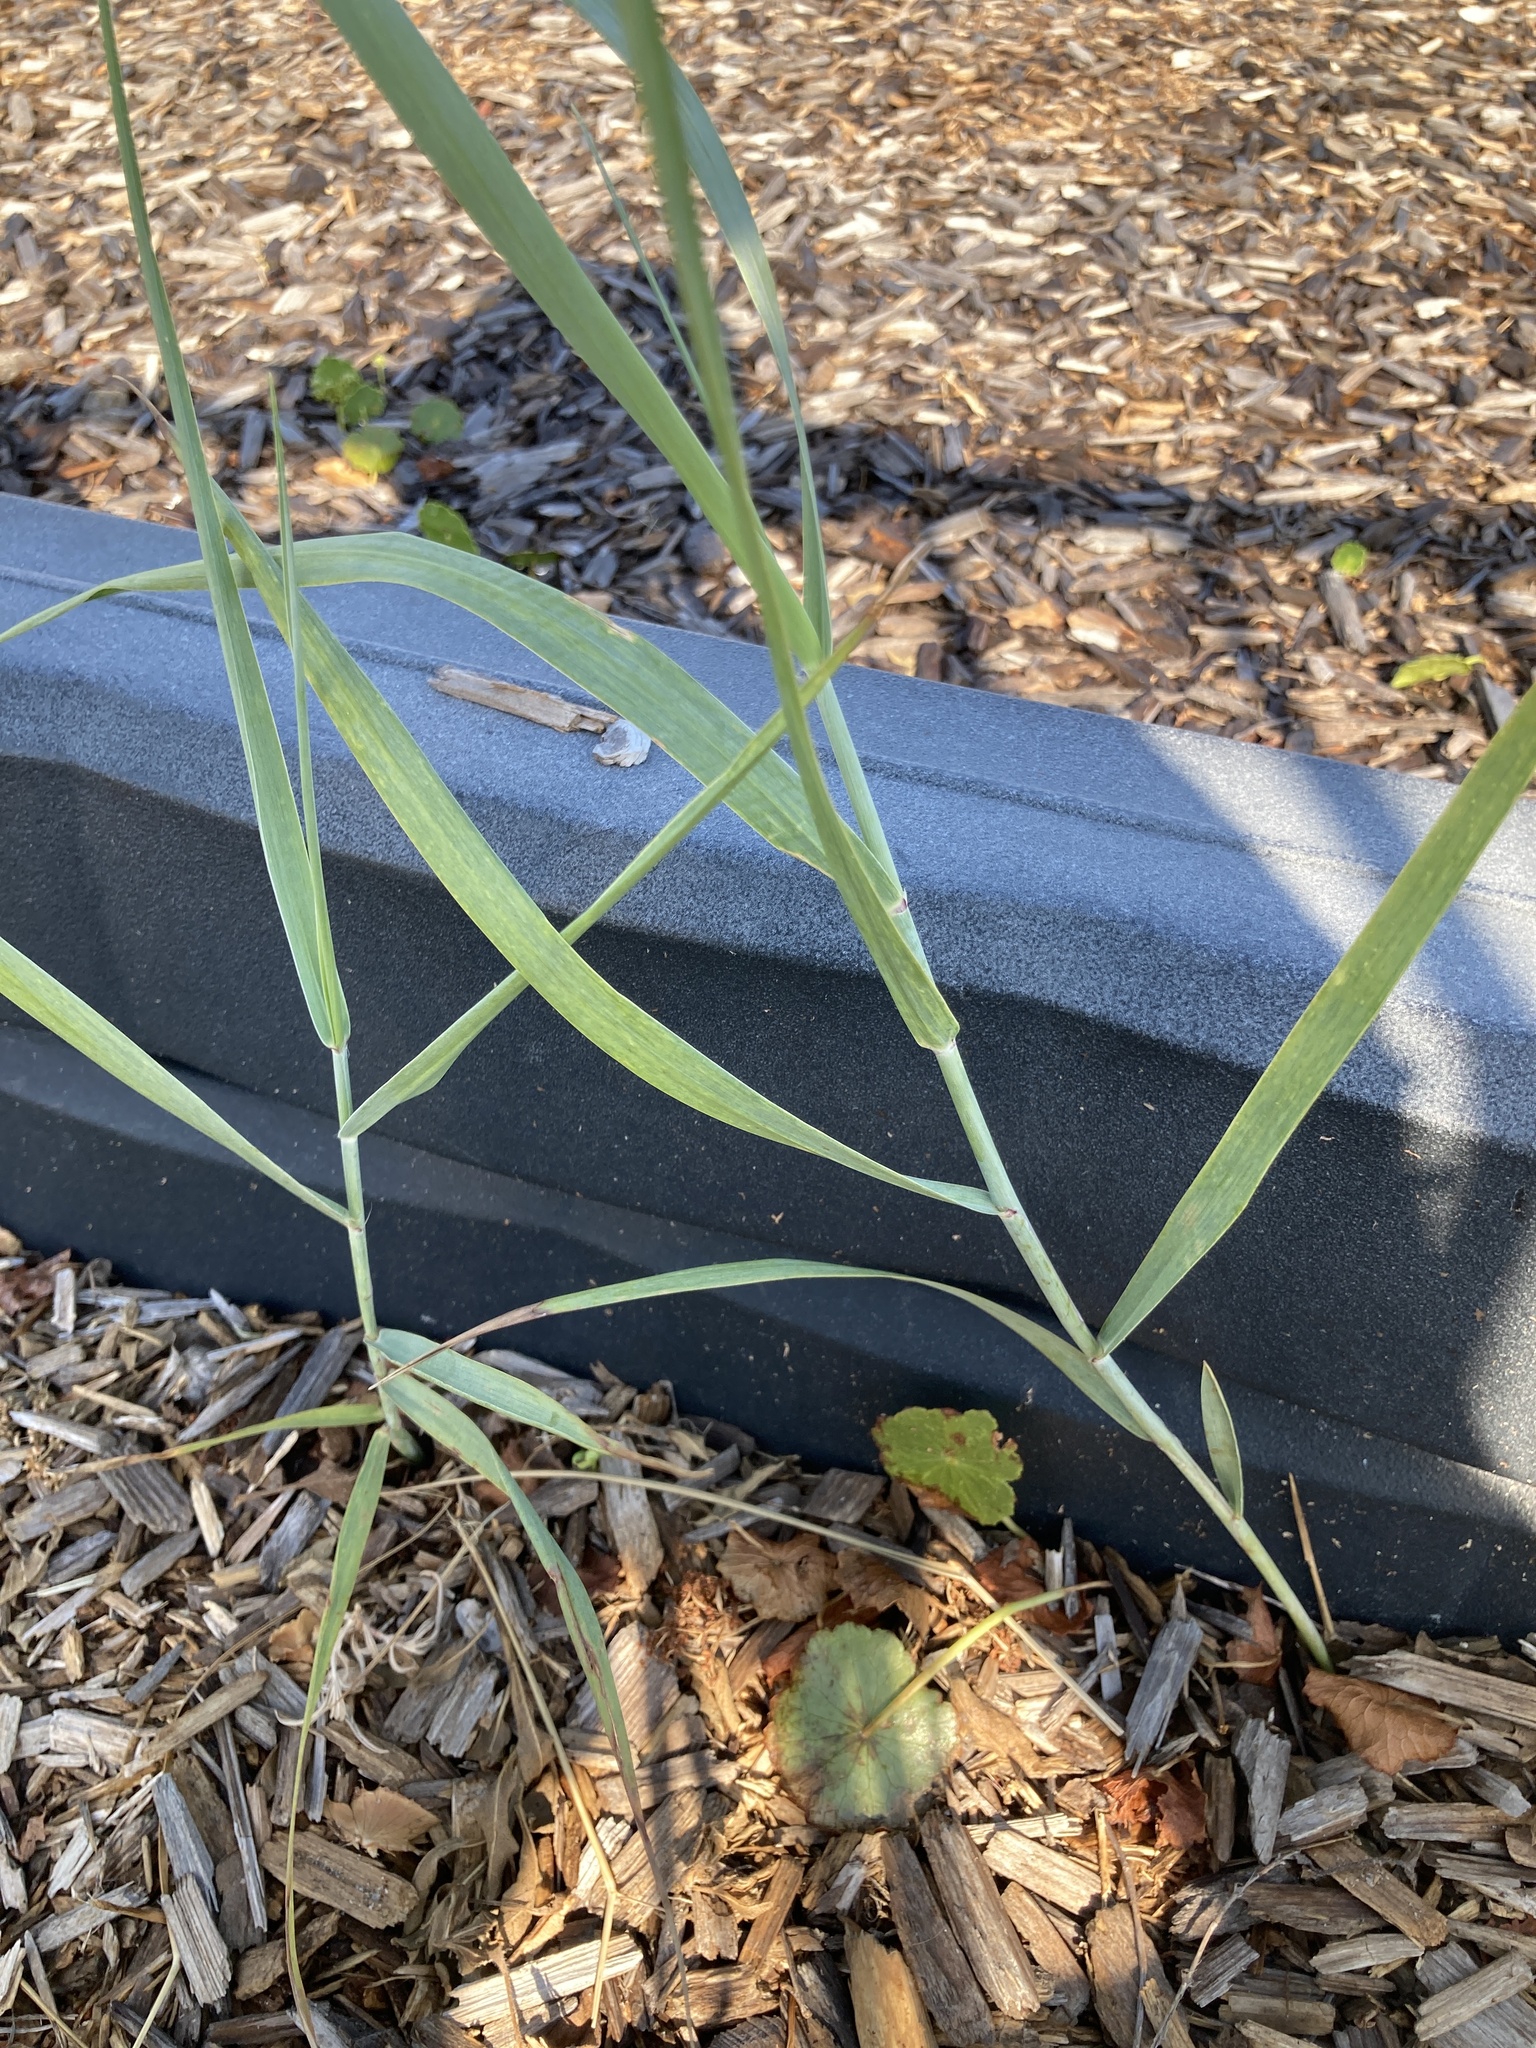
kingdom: Plantae
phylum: Tracheophyta
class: Liliopsida
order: Poales
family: Poaceae
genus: Panicum
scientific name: Panicum amarum
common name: Bitter panicum
